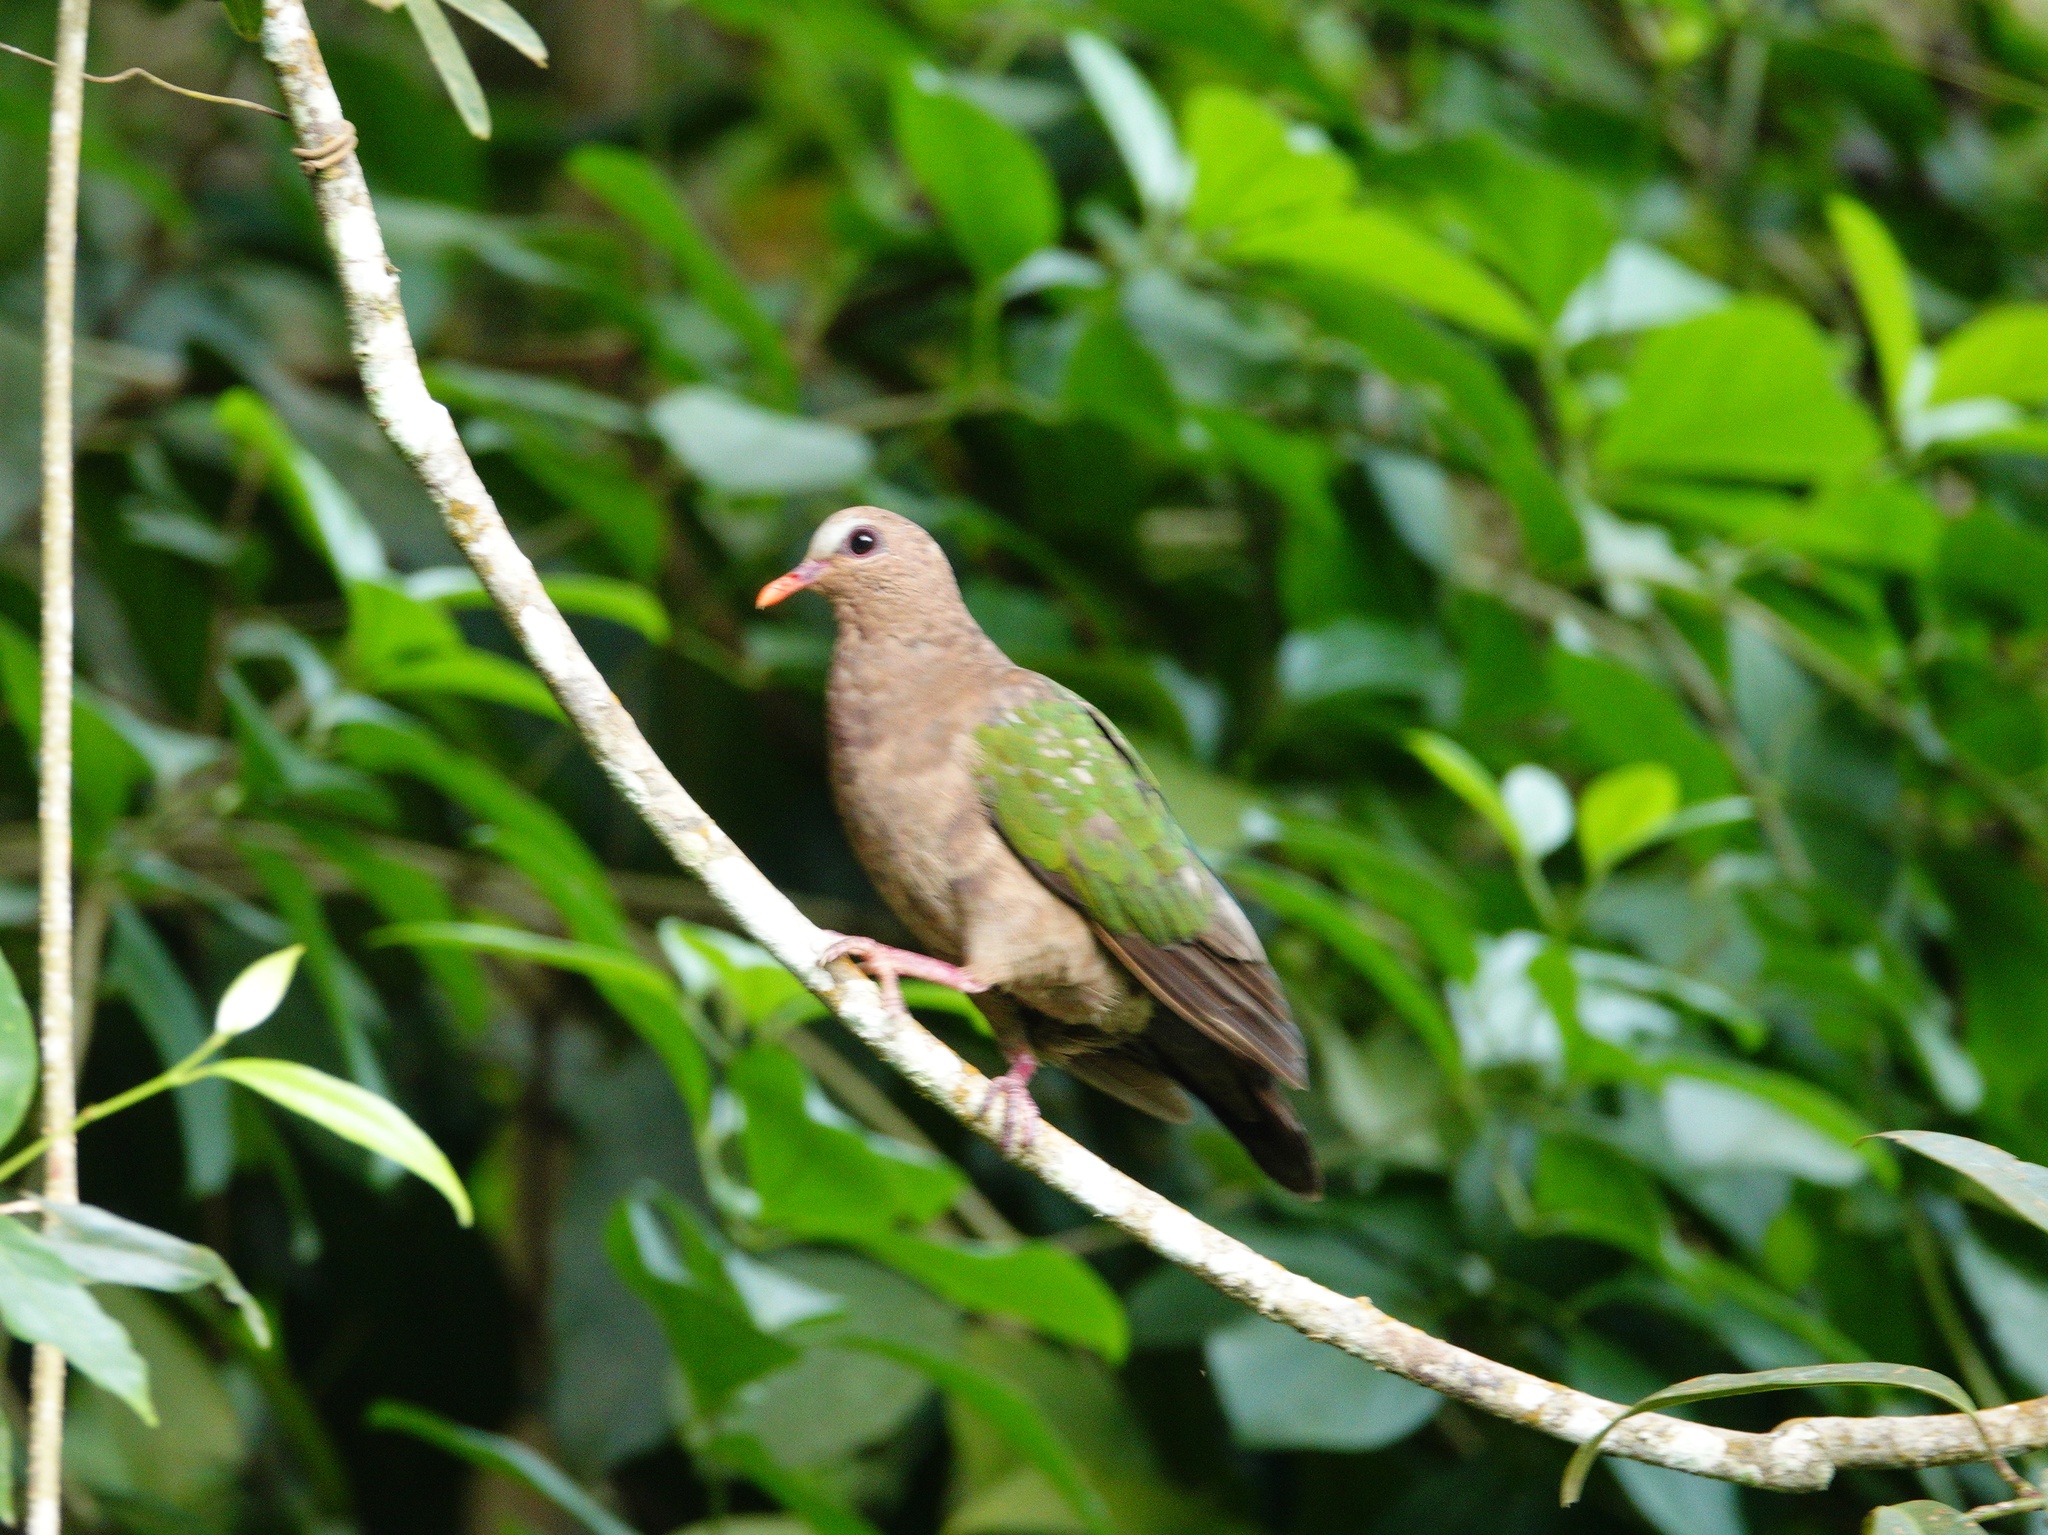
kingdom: Animalia
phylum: Chordata
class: Aves
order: Columbiformes
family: Columbidae
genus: Chalcophaps
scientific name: Chalcophaps indica
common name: Common emerald dove
